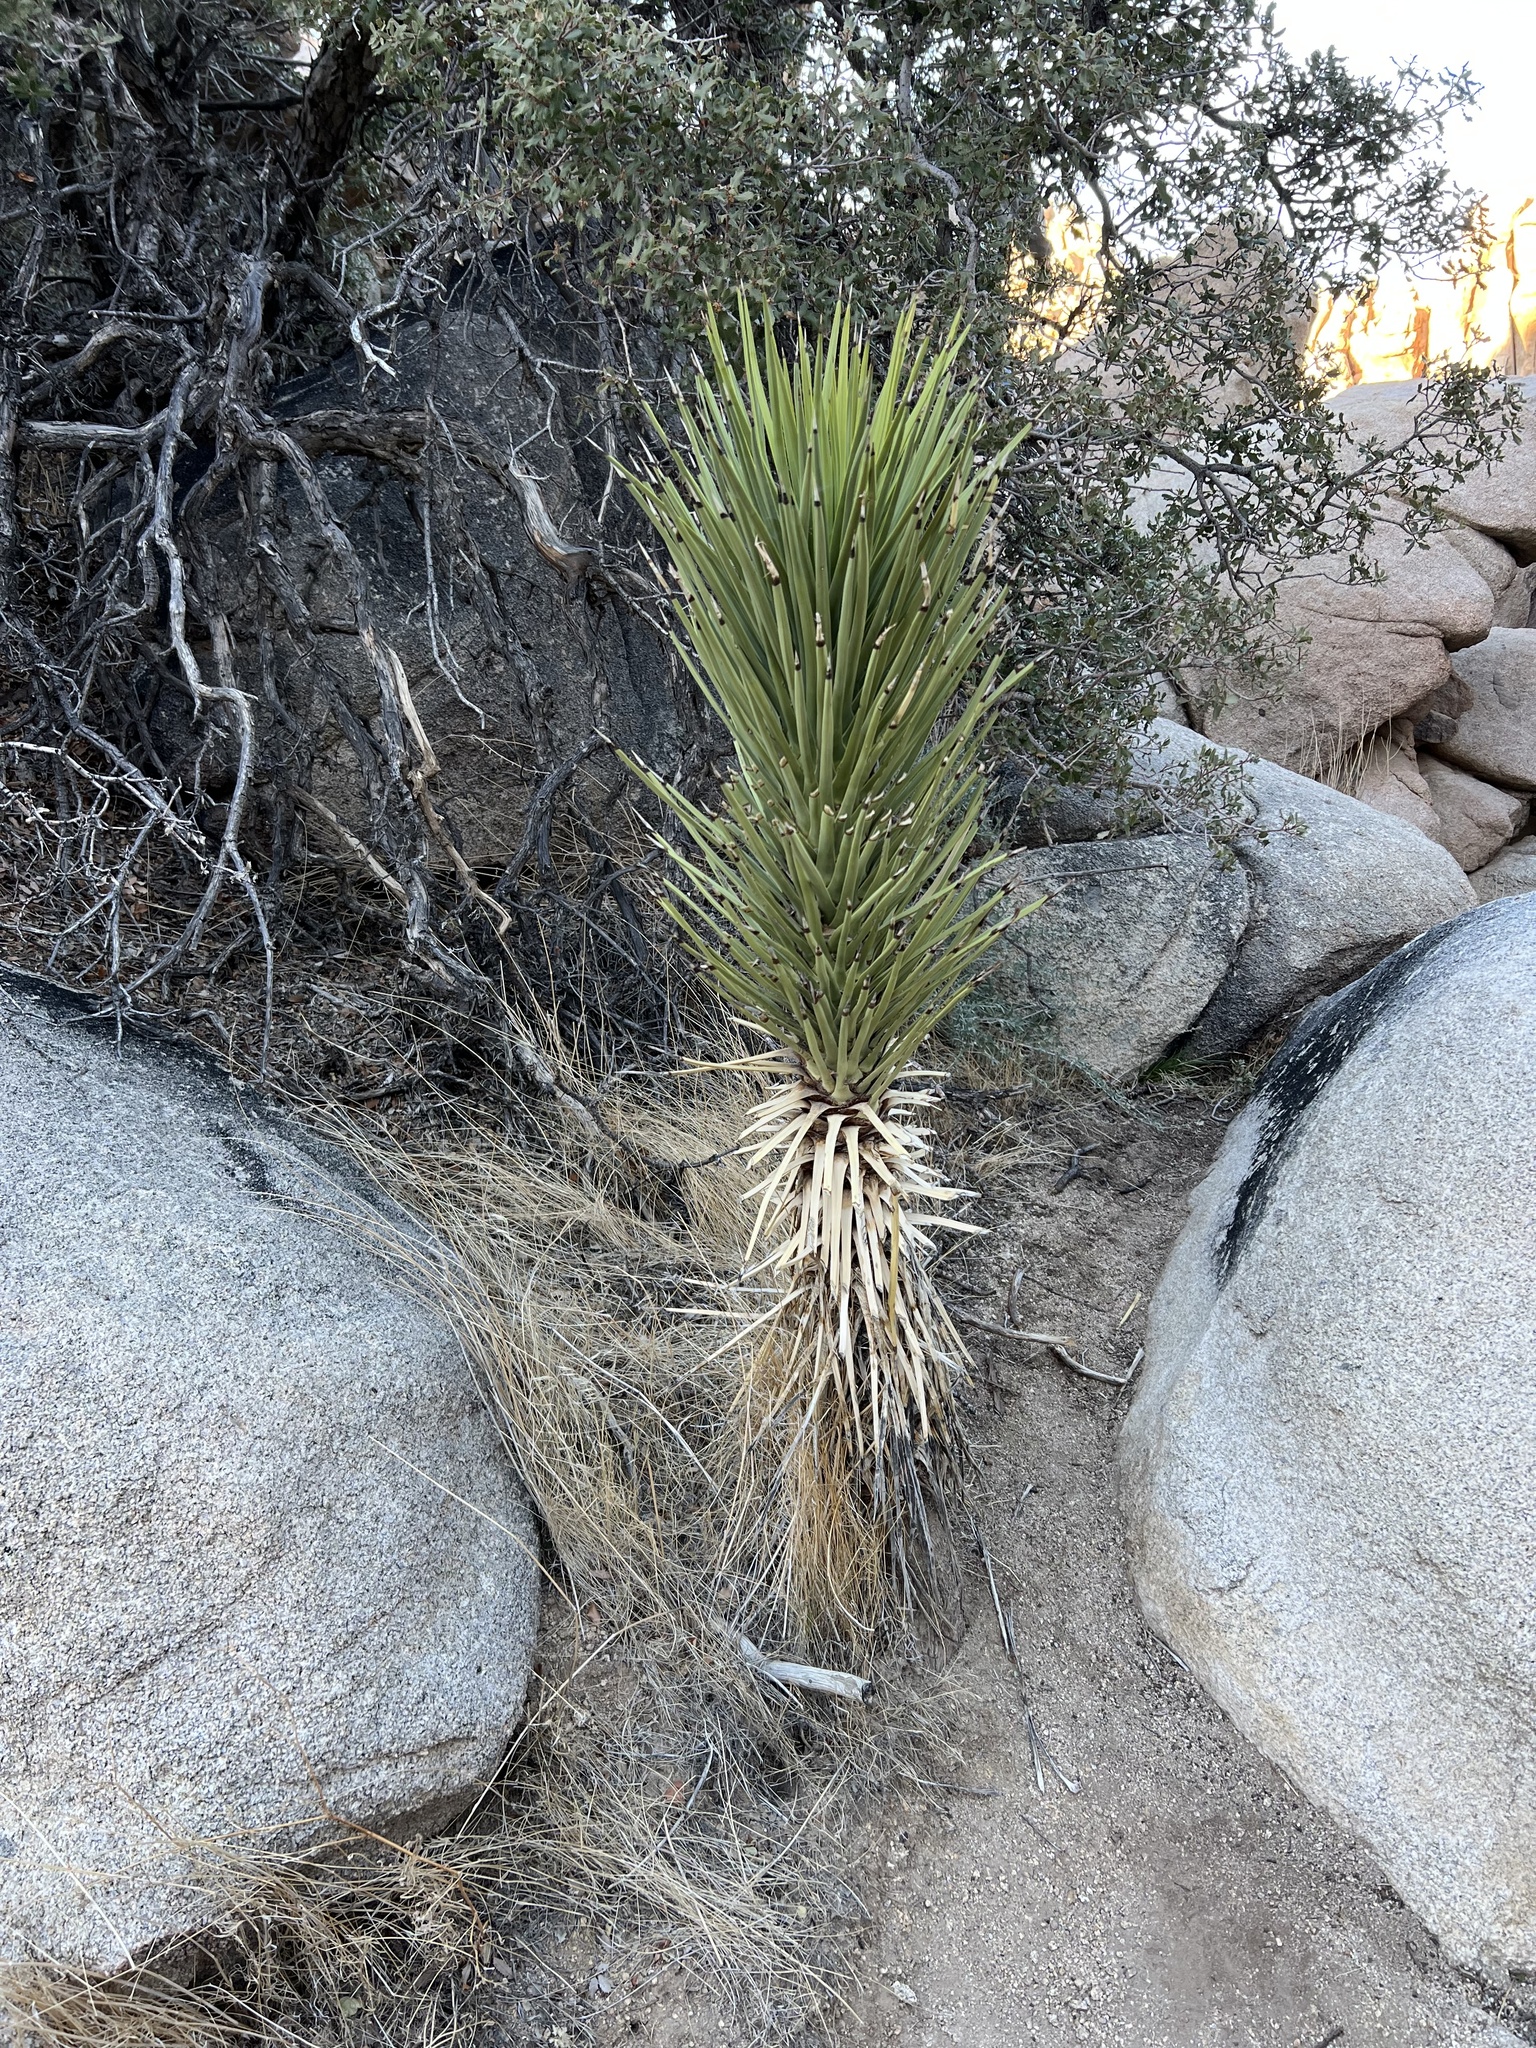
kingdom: Plantae
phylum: Tracheophyta
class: Liliopsida
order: Asparagales
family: Asparagaceae
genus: Yucca
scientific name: Yucca brevifolia
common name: Joshua tree
